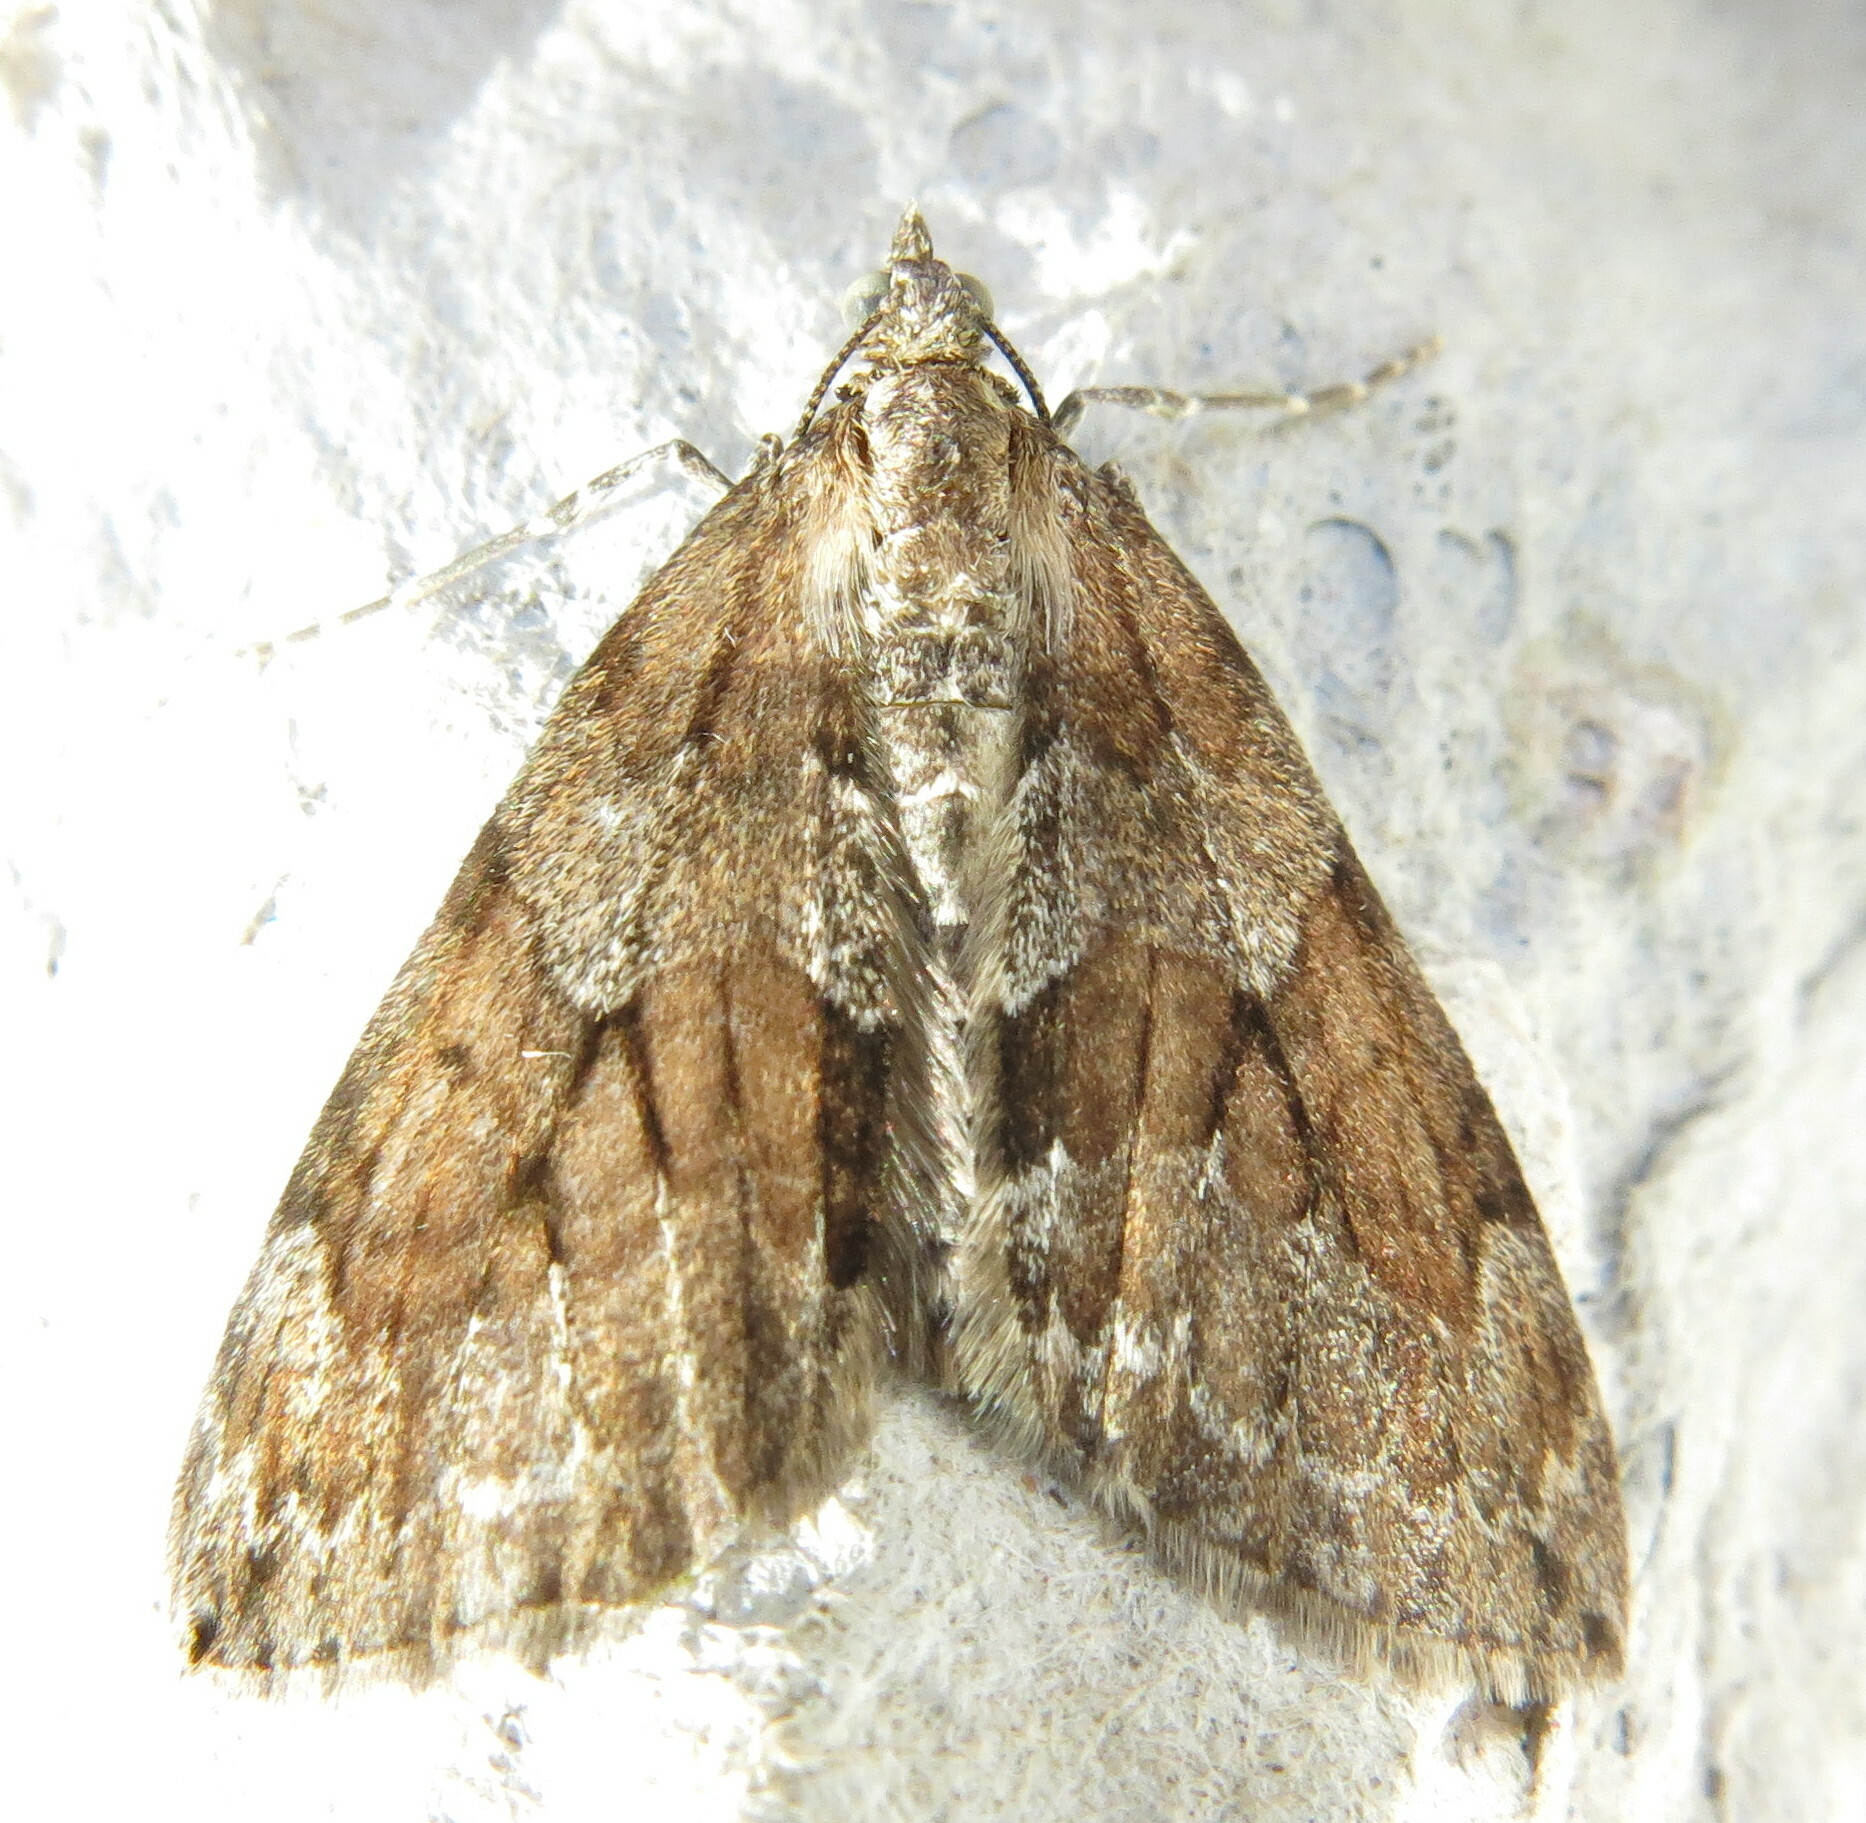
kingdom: Animalia
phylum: Arthropoda
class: Insecta
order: Lepidoptera
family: Geometridae
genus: Thera
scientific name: Thera britannica
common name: Spruce carpet
